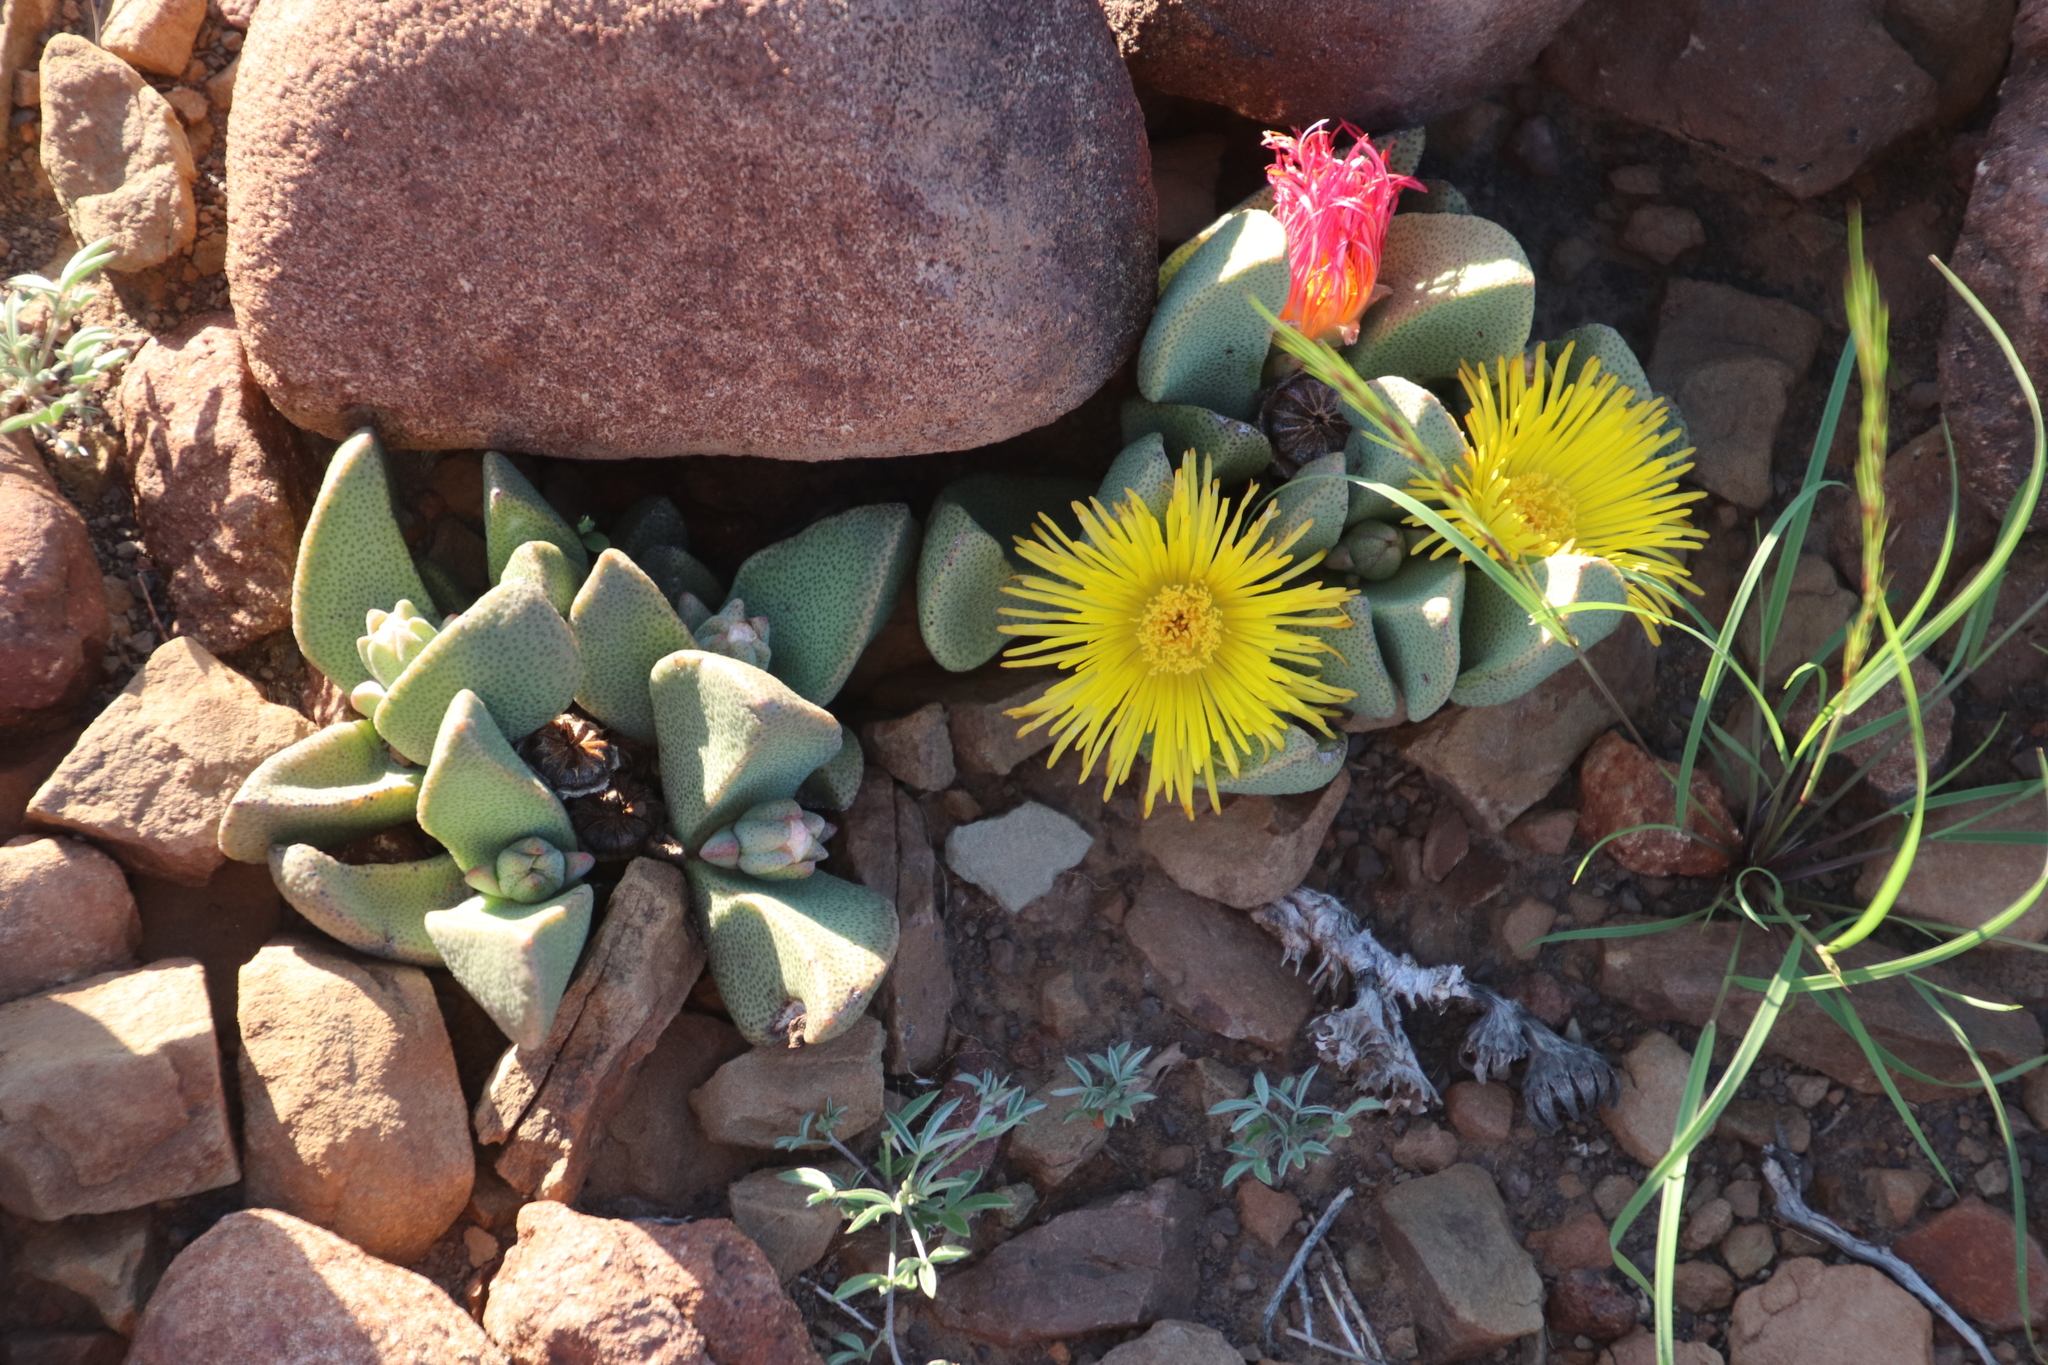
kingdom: Plantae
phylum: Tracheophyta
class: Magnoliopsida
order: Caryophyllales
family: Aizoaceae
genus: Pleiospilos
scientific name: Pleiospilos compactus
